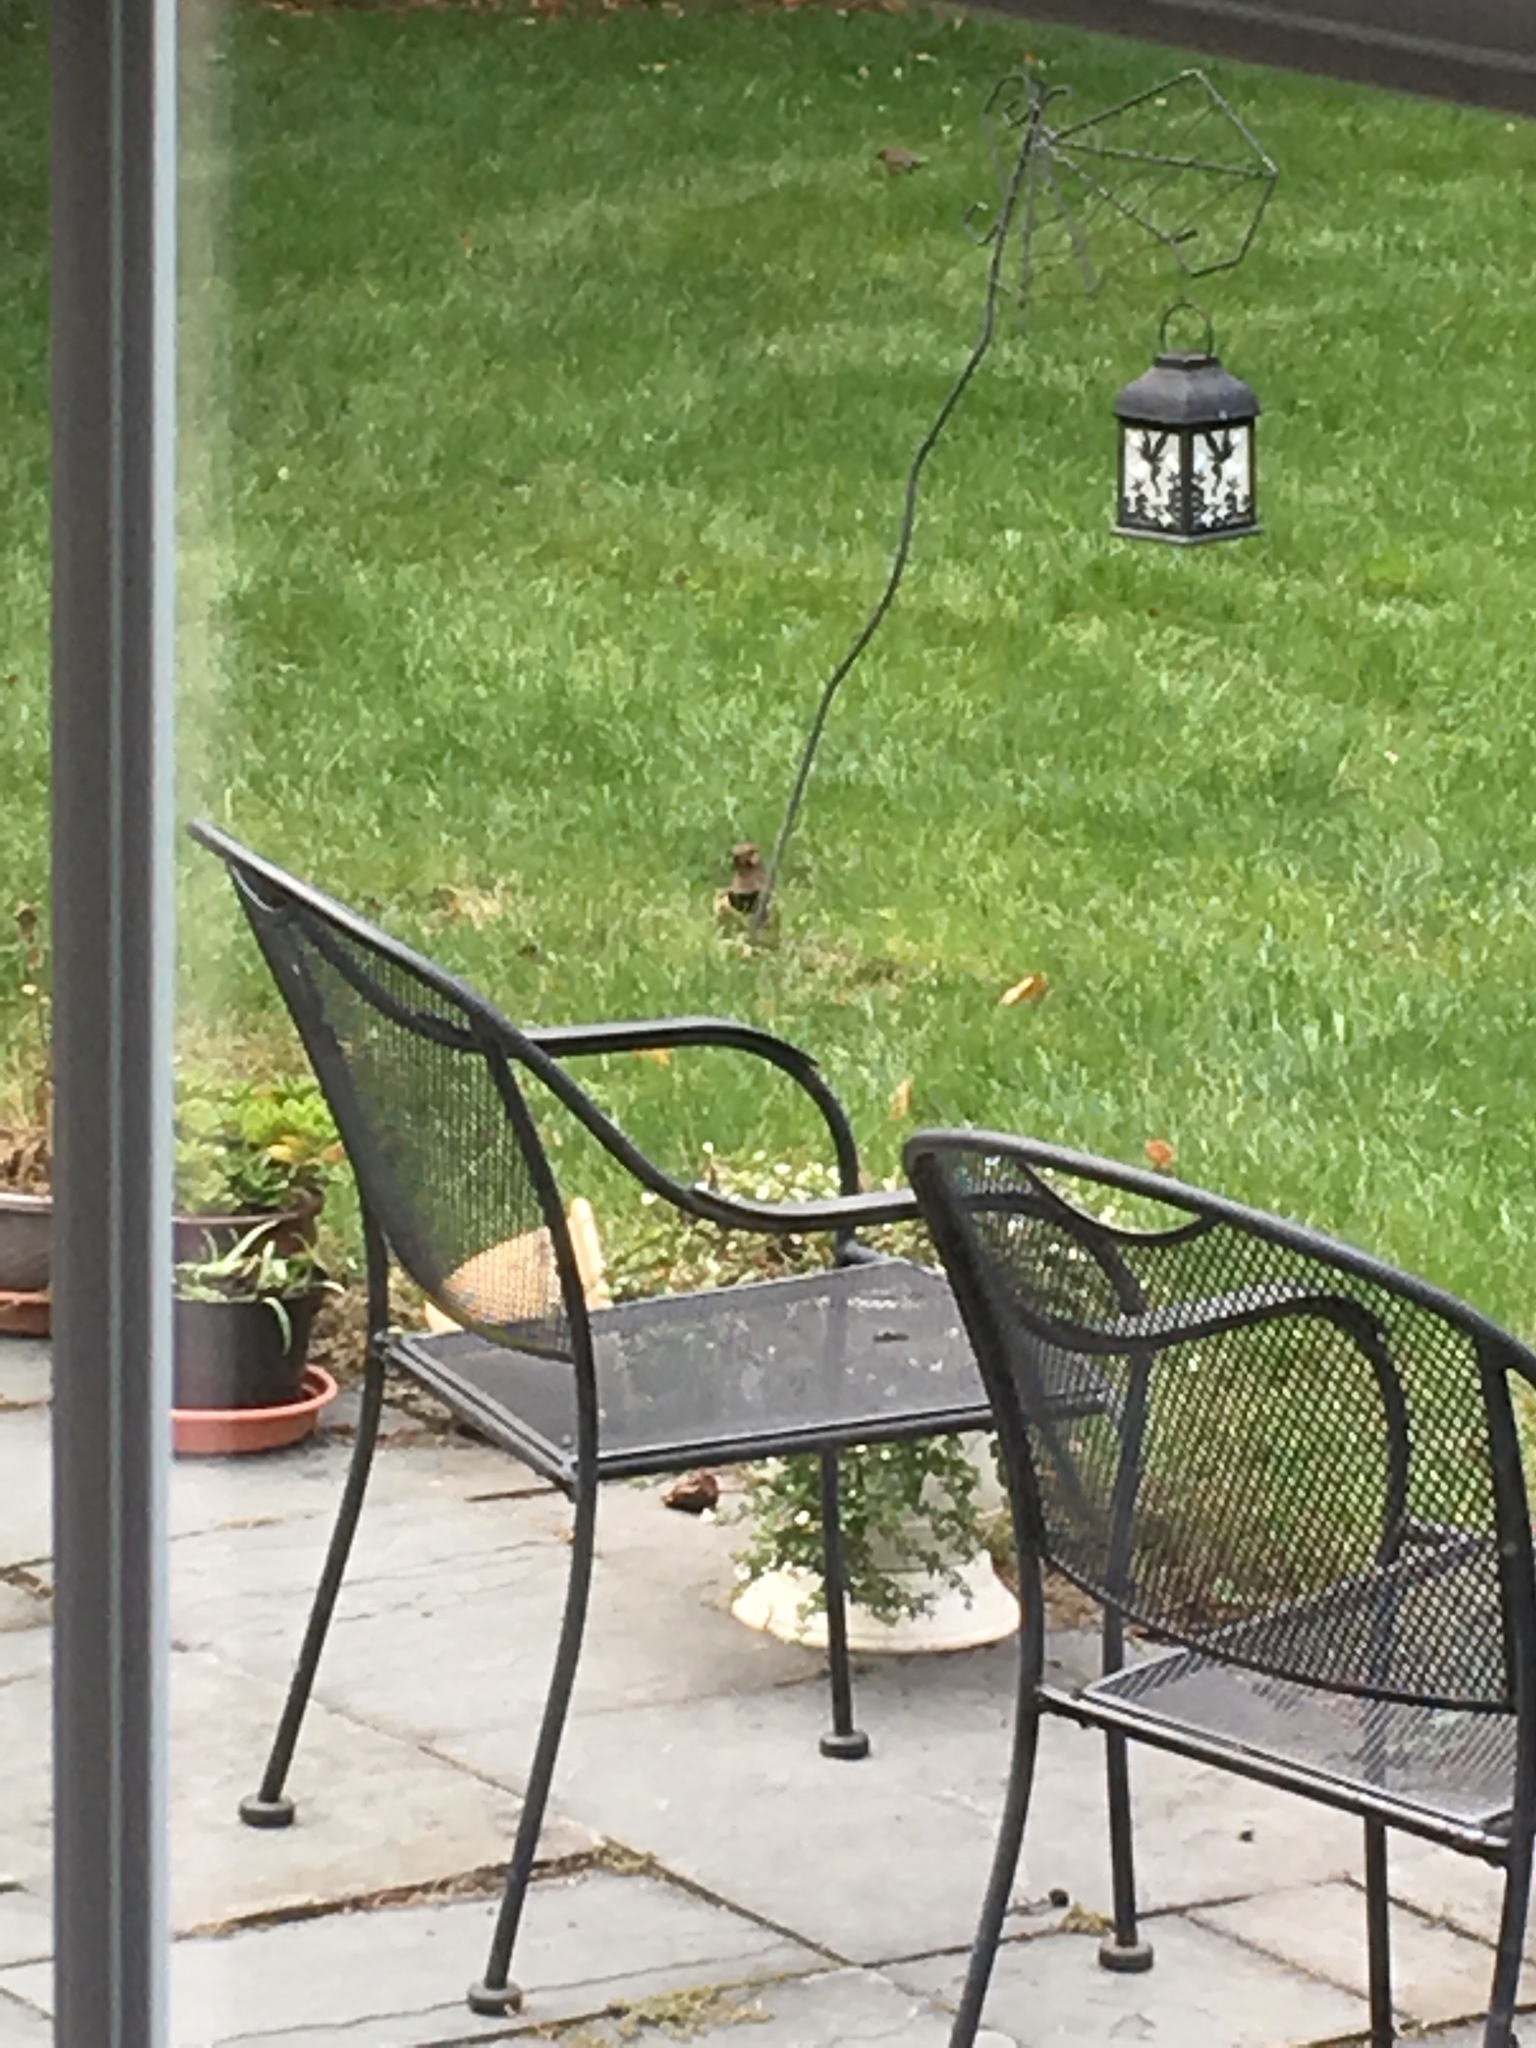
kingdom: Animalia
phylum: Chordata
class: Aves
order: Piciformes
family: Picidae
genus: Colaptes
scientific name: Colaptes auratus
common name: Northern flicker
